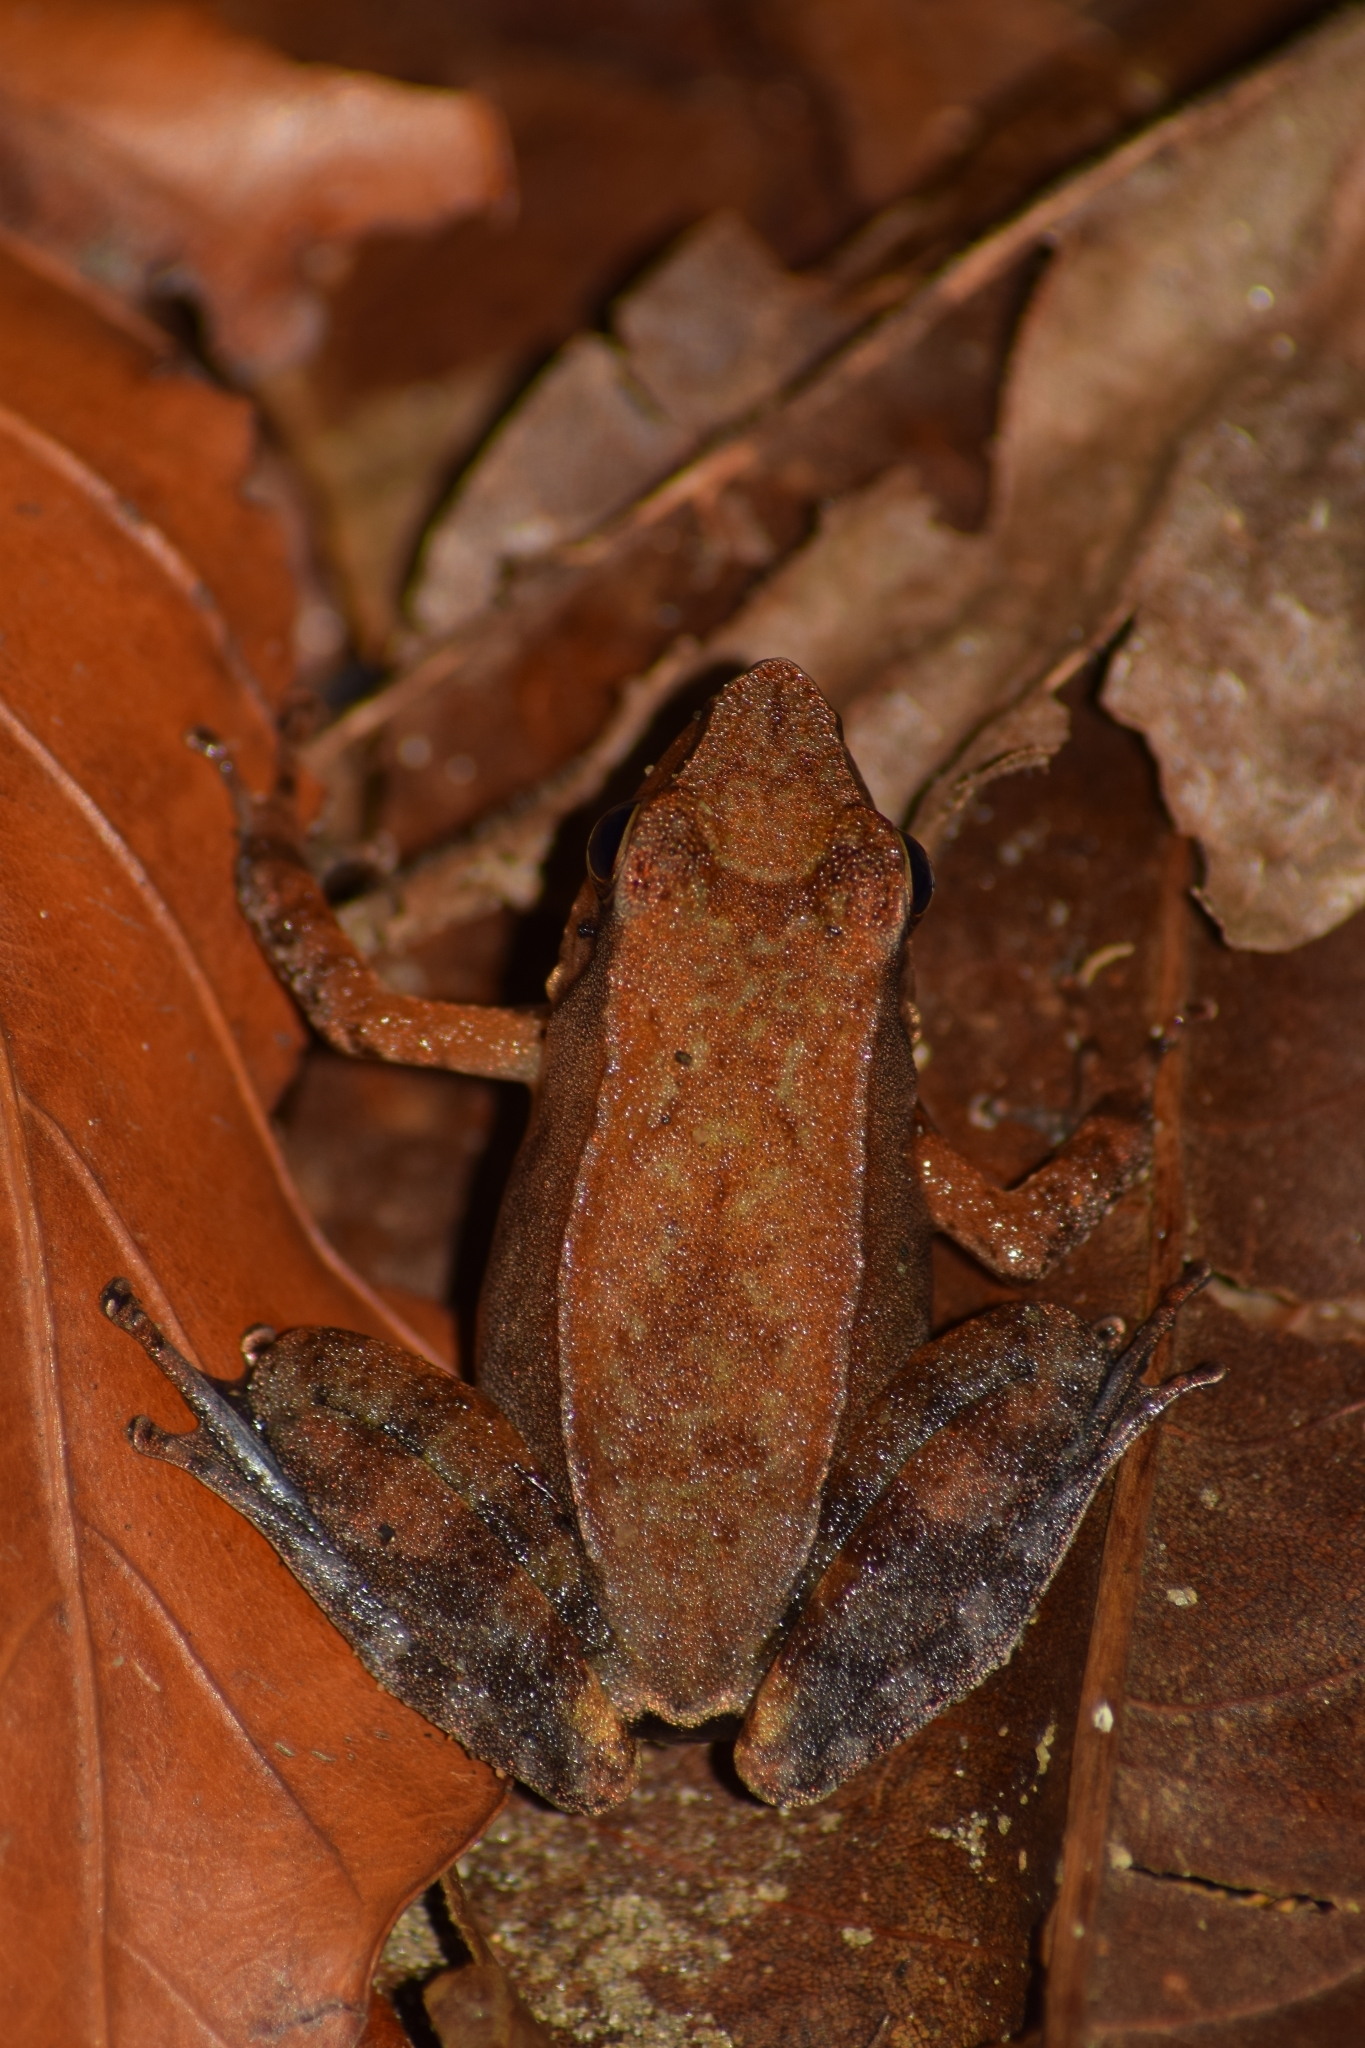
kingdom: Animalia
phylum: Chordata
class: Amphibia
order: Anura
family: Micrixalidae
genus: Micrixalus
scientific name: Micrixalus herrei
